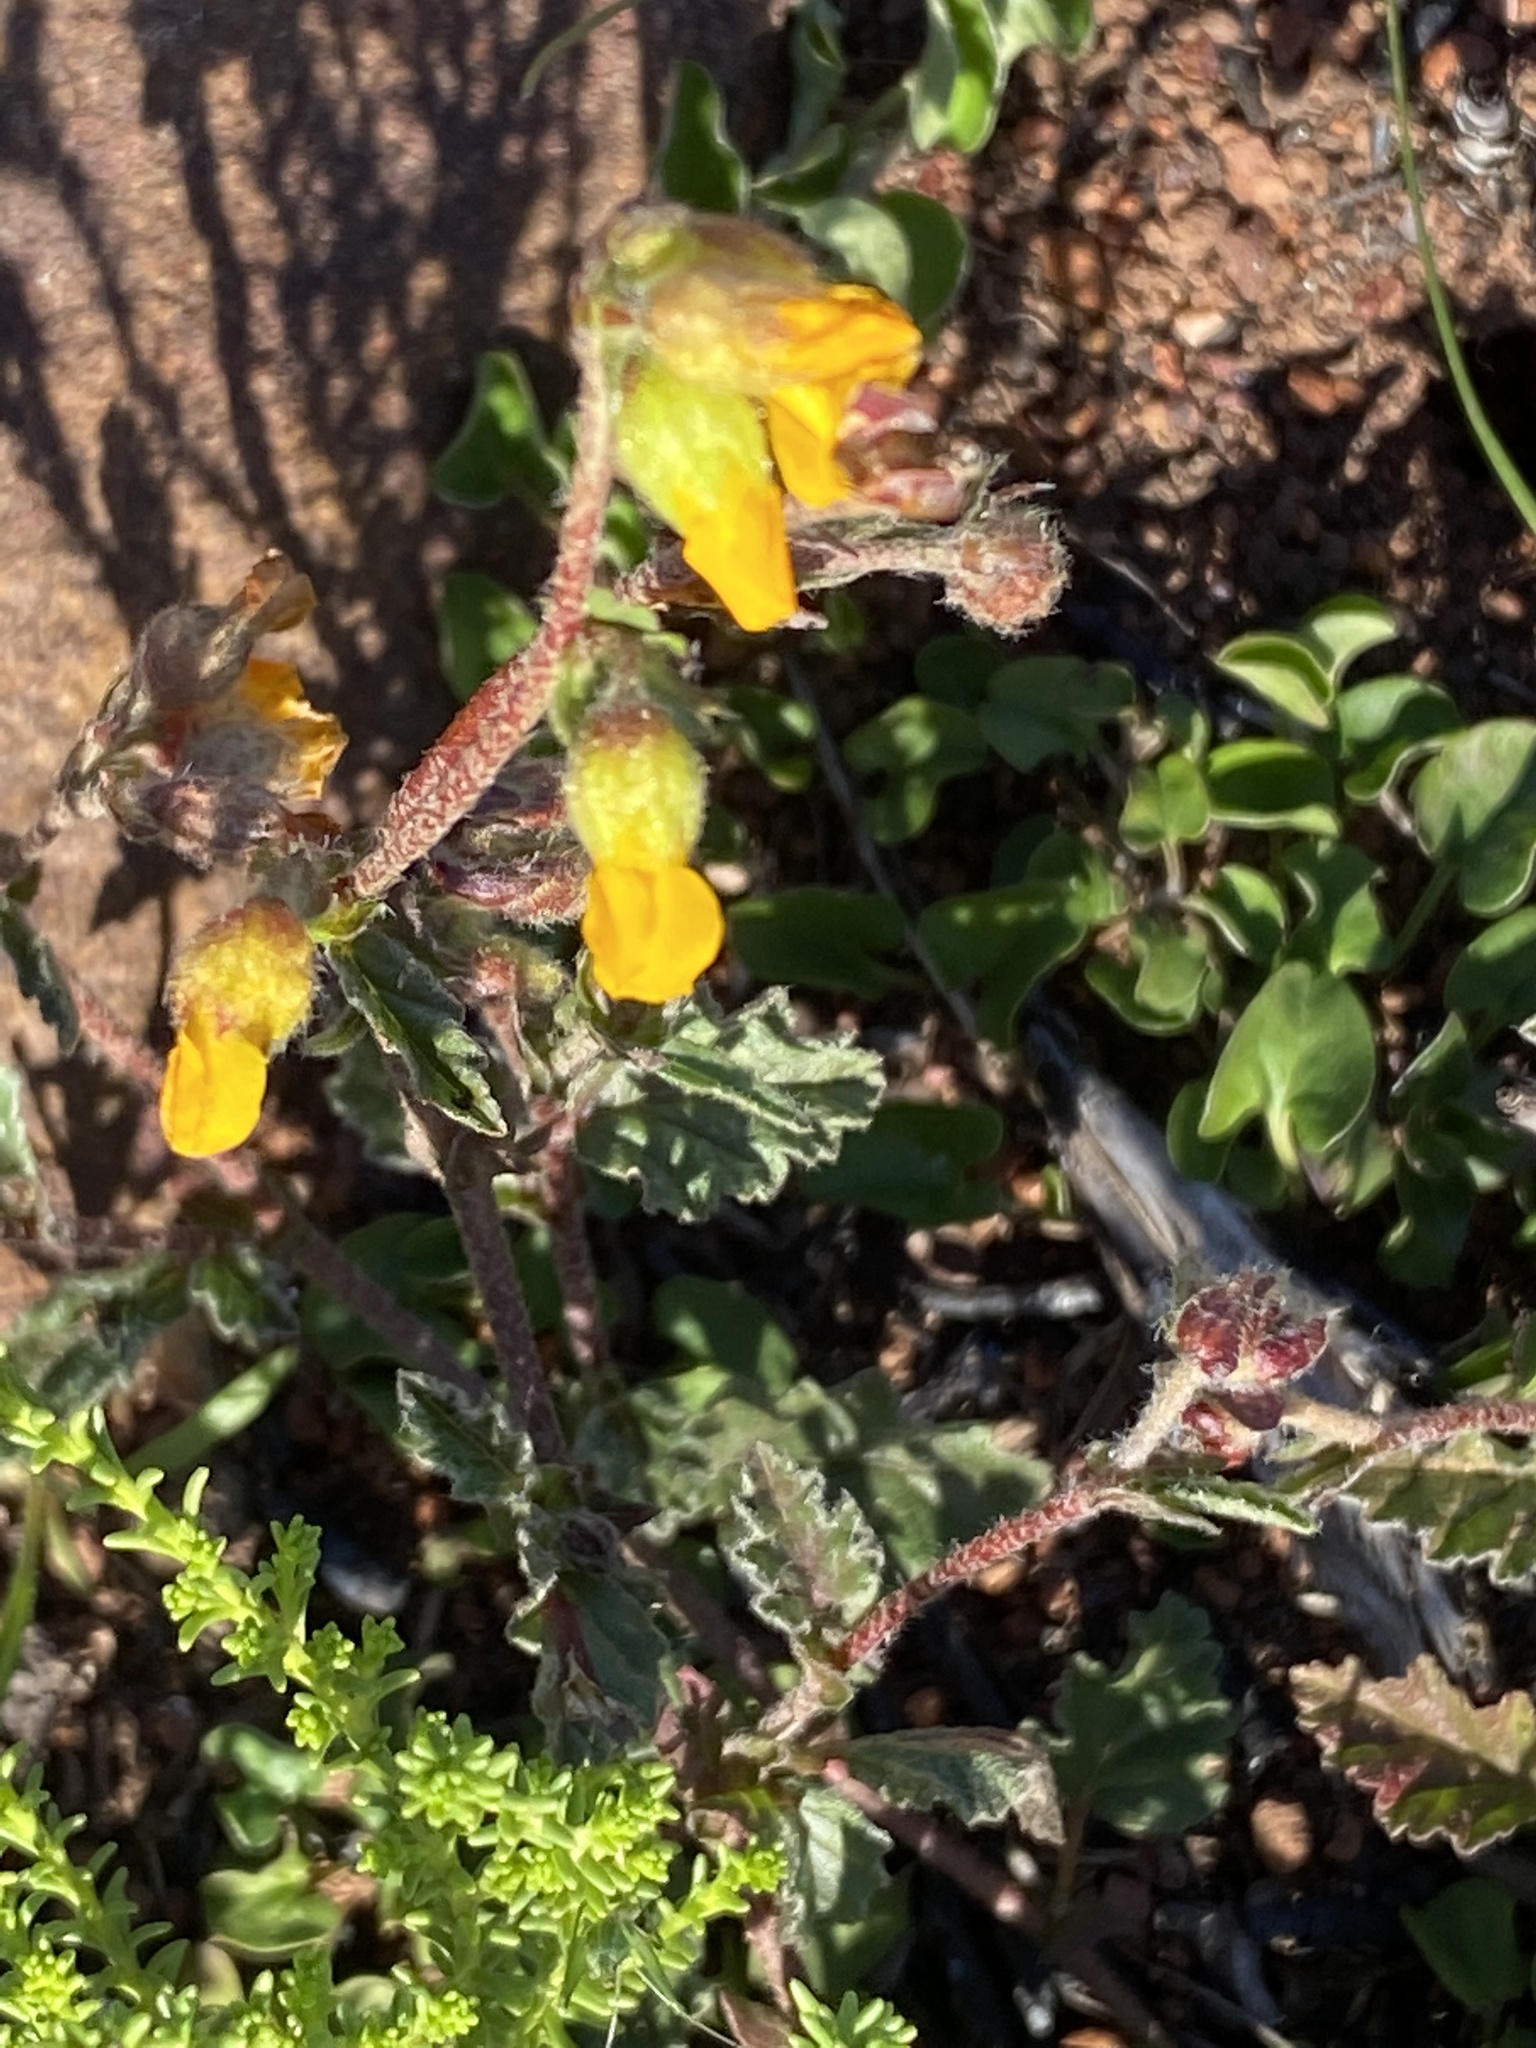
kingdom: Plantae
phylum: Tracheophyta
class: Magnoliopsida
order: Malvales
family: Malvaceae
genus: Hermannia
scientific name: Hermannia decumbens
